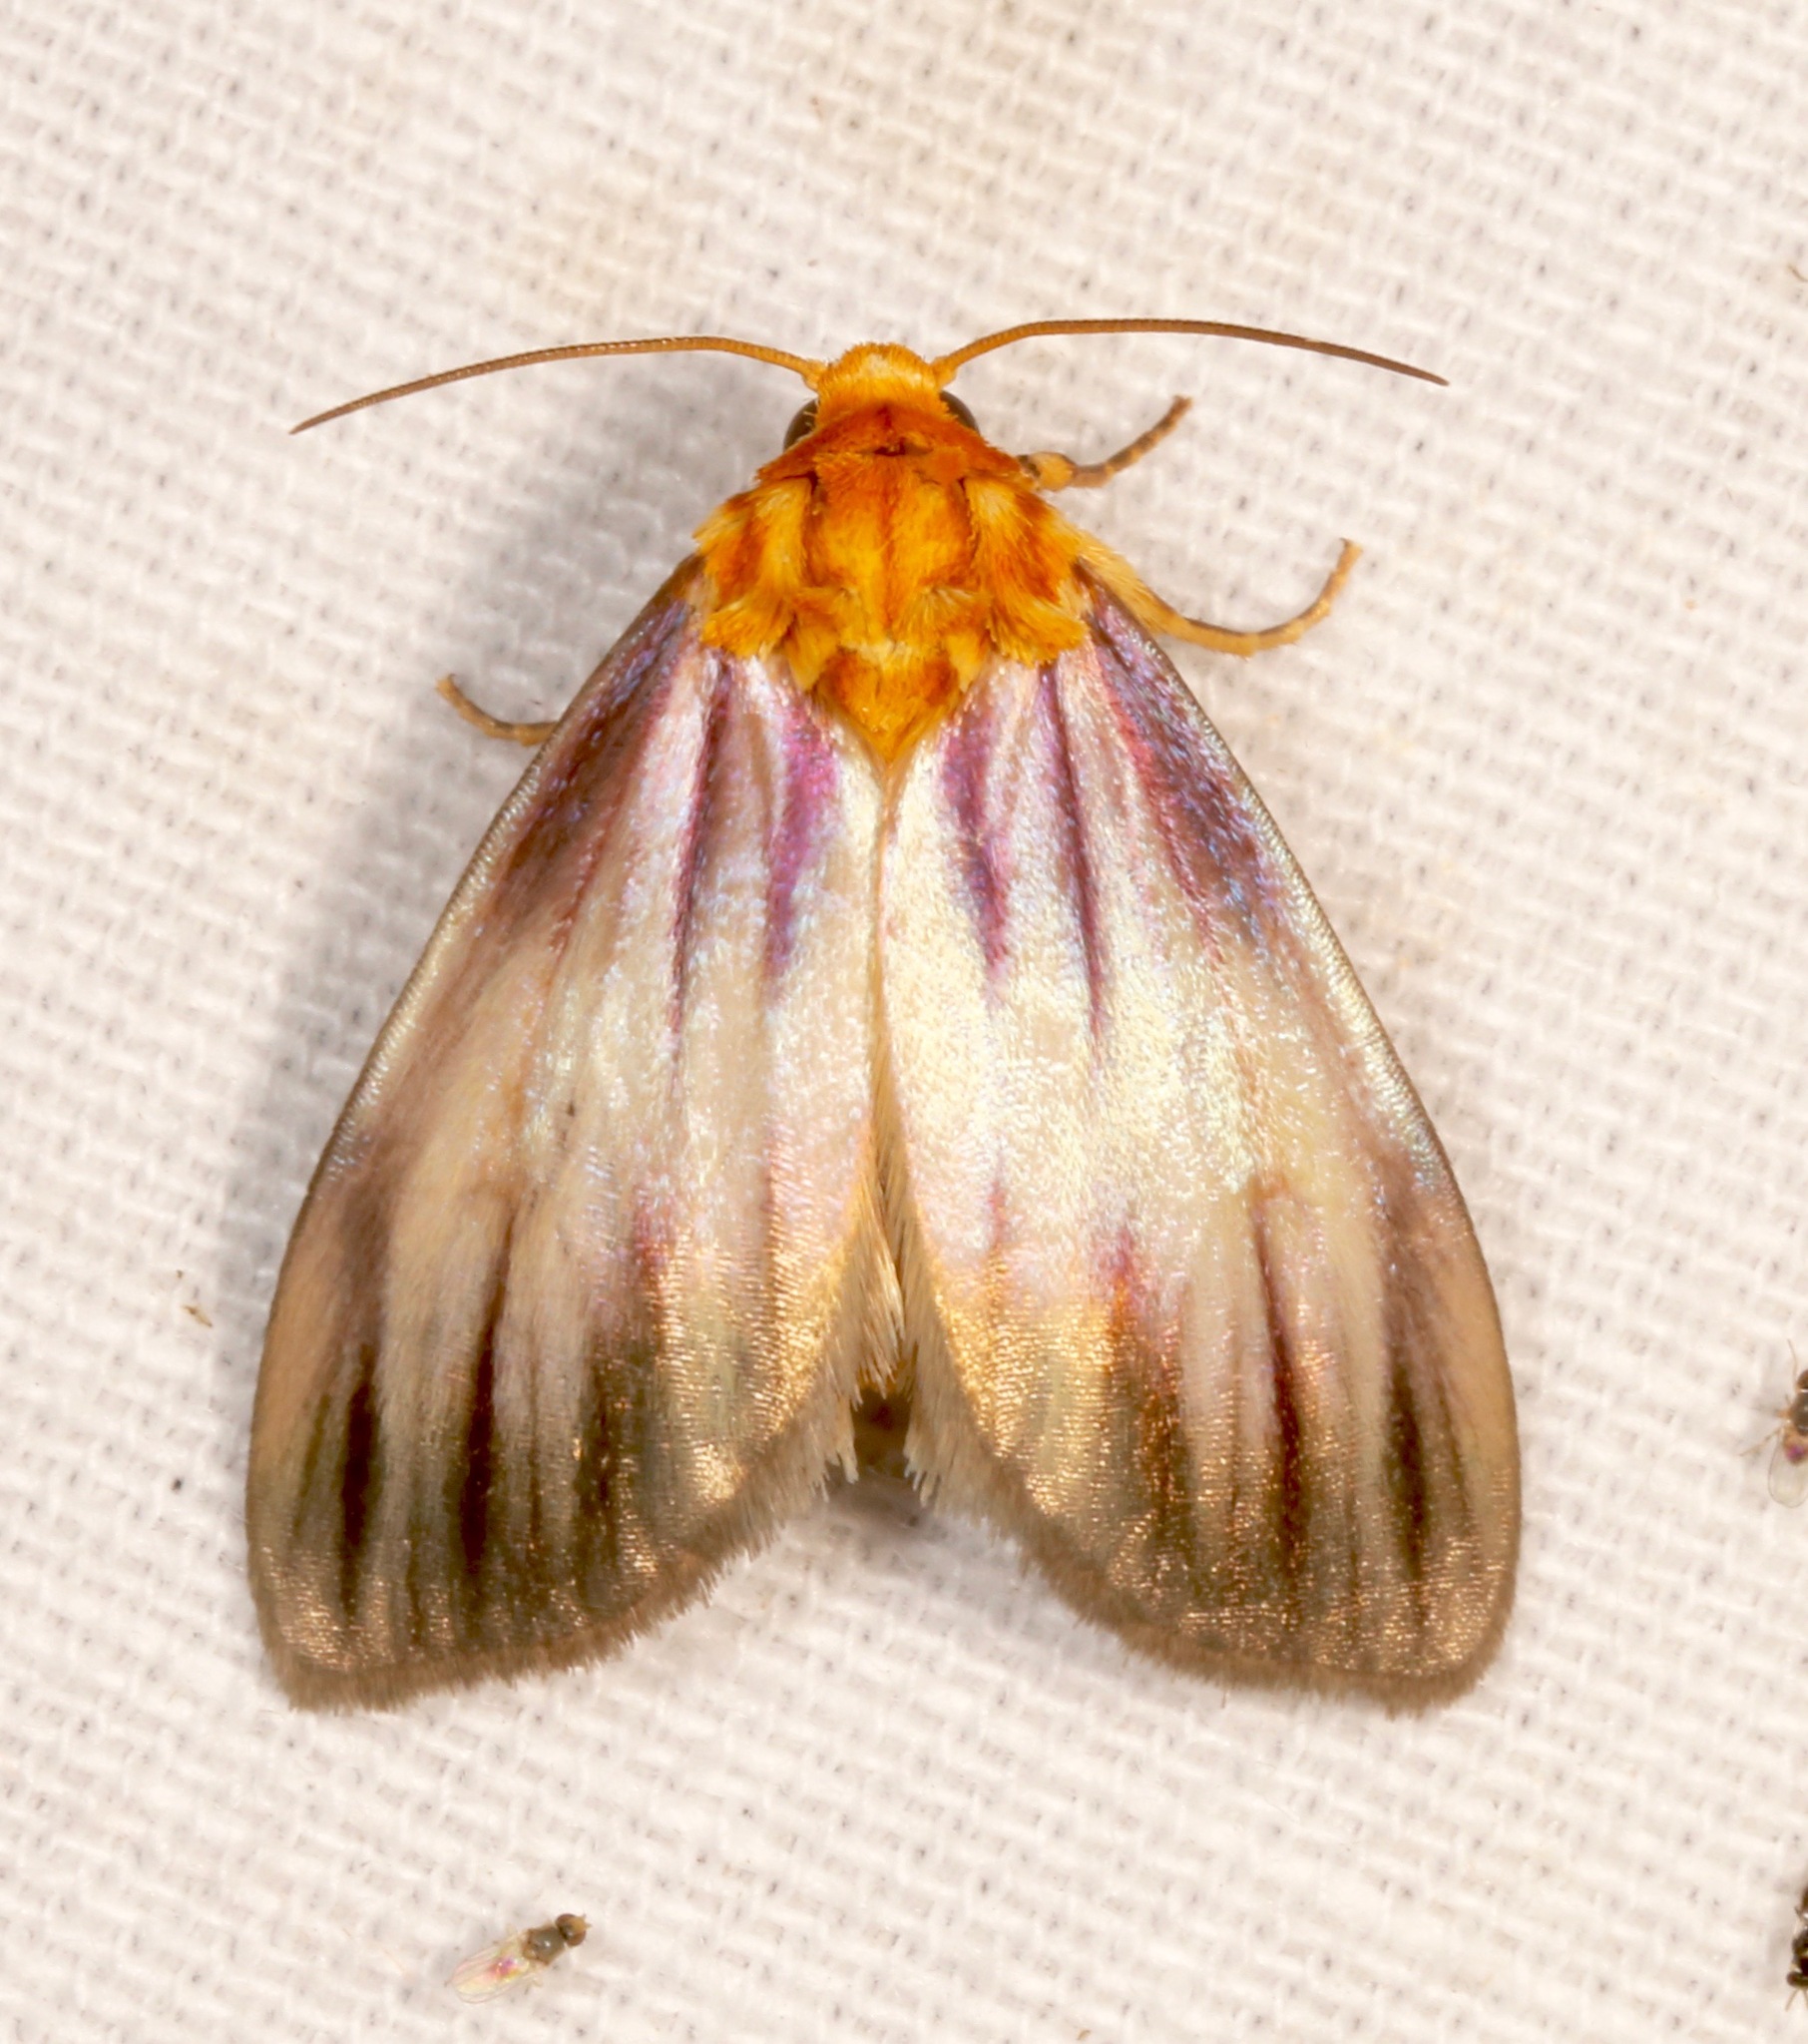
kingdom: Animalia
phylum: Arthropoda
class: Insecta
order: Lepidoptera
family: Noctuidae
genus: Antaplaga
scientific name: Antaplaga plesioglauca
